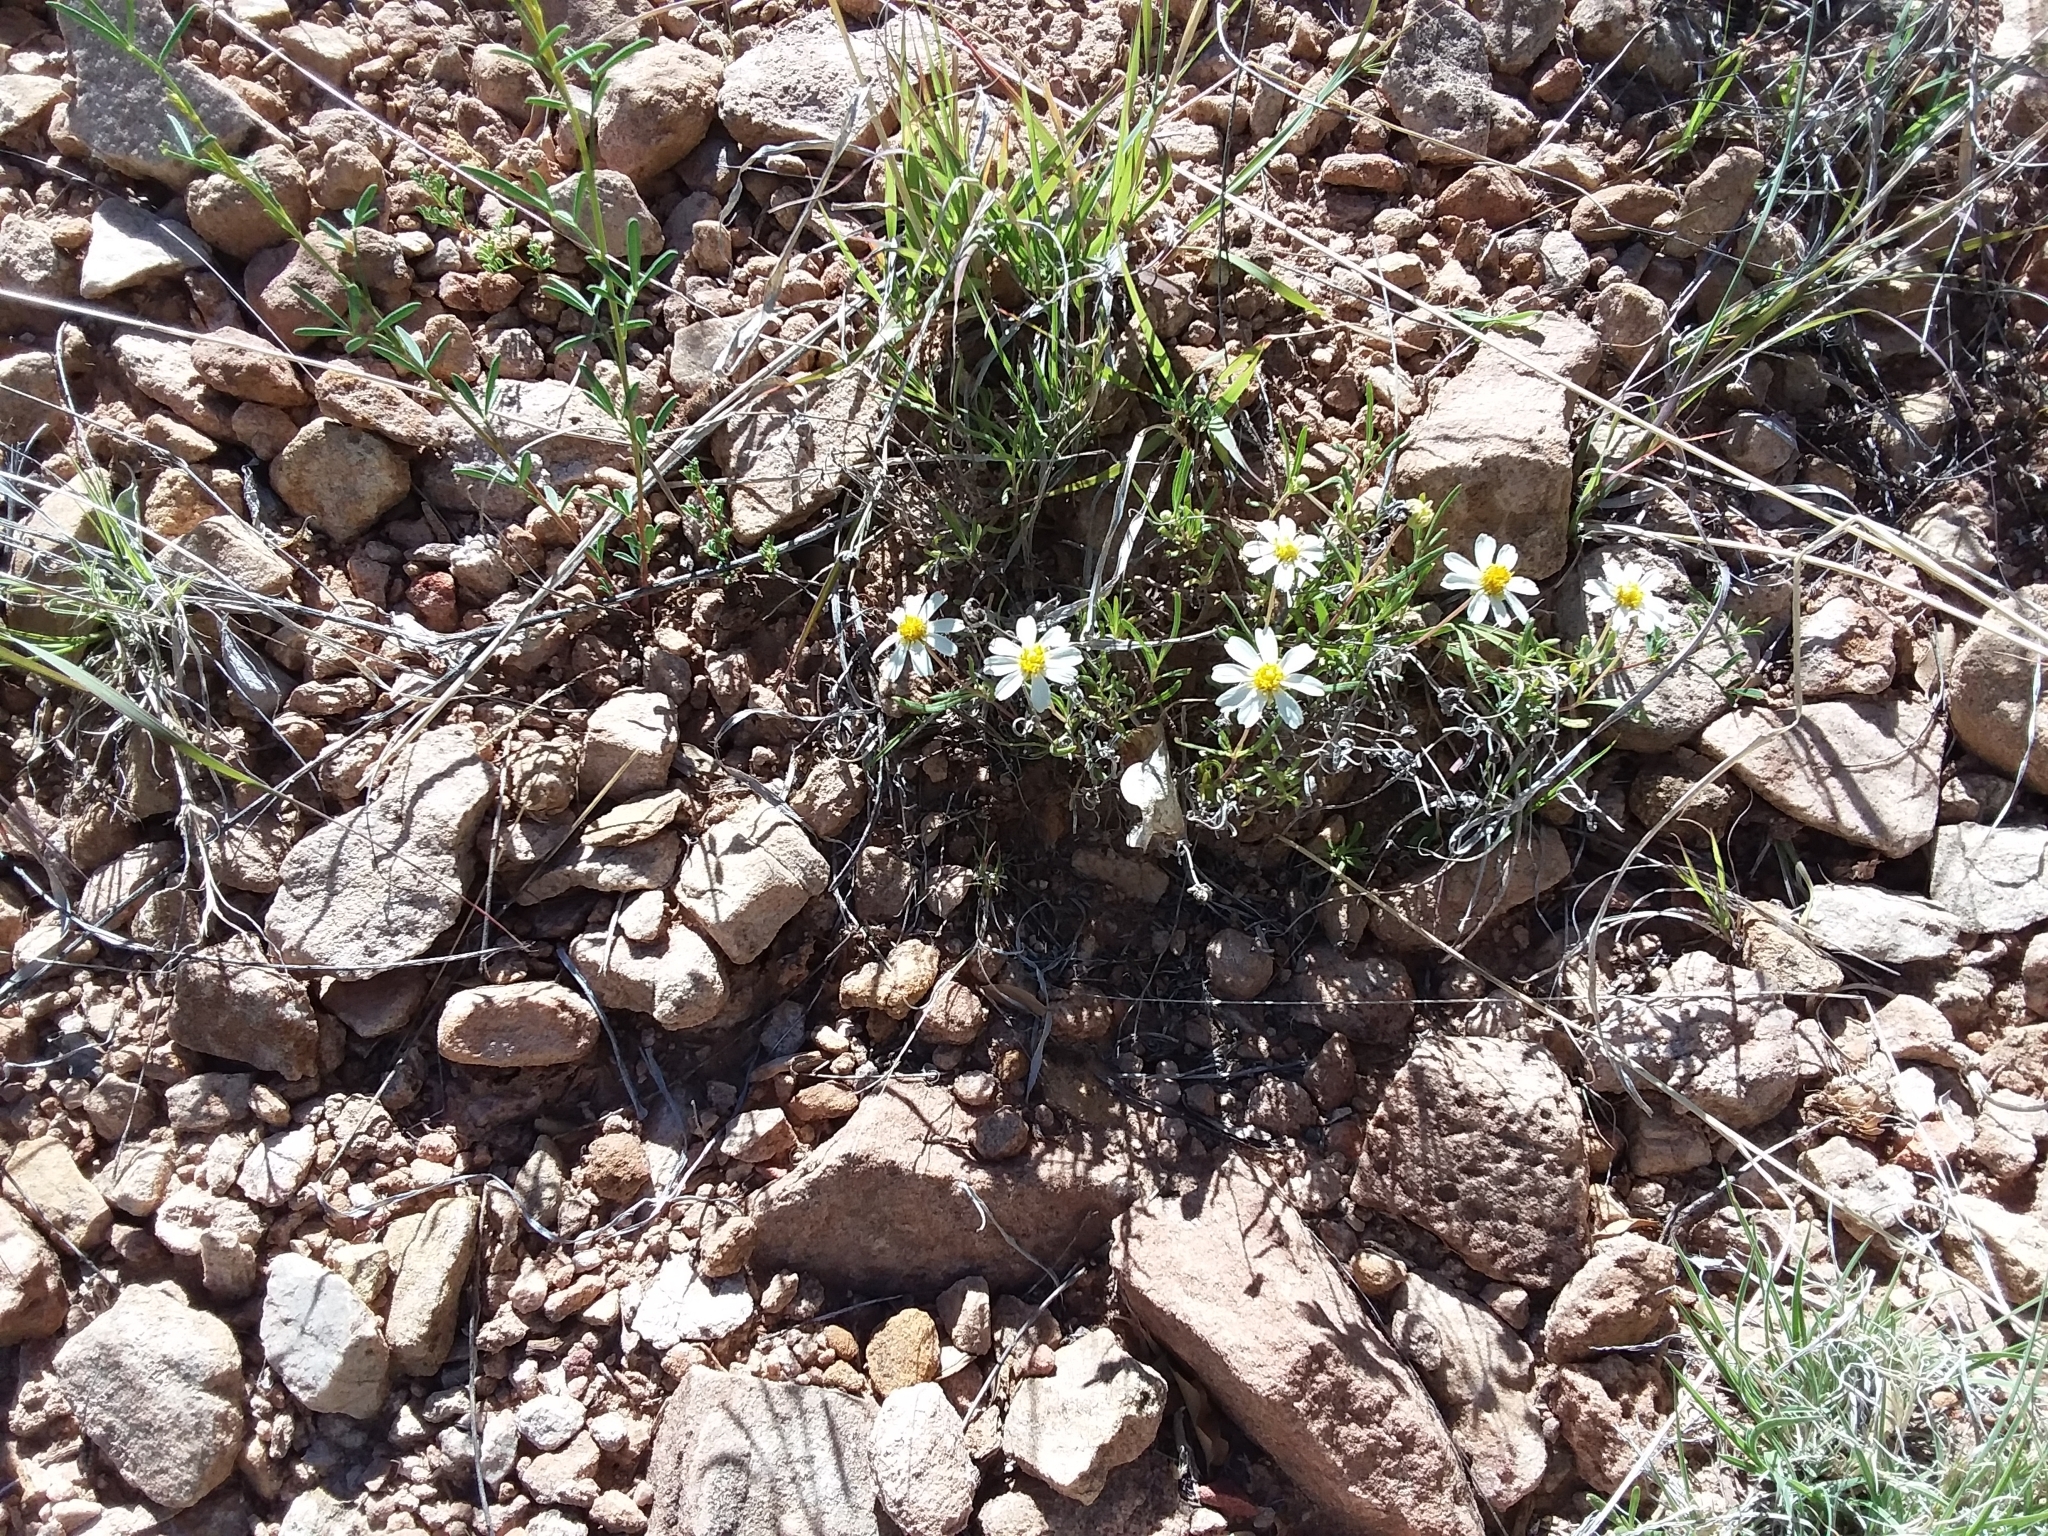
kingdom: Plantae
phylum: Tracheophyta
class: Magnoliopsida
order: Asterales
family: Asteraceae
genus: Melampodium
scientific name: Melampodium leucanthum
